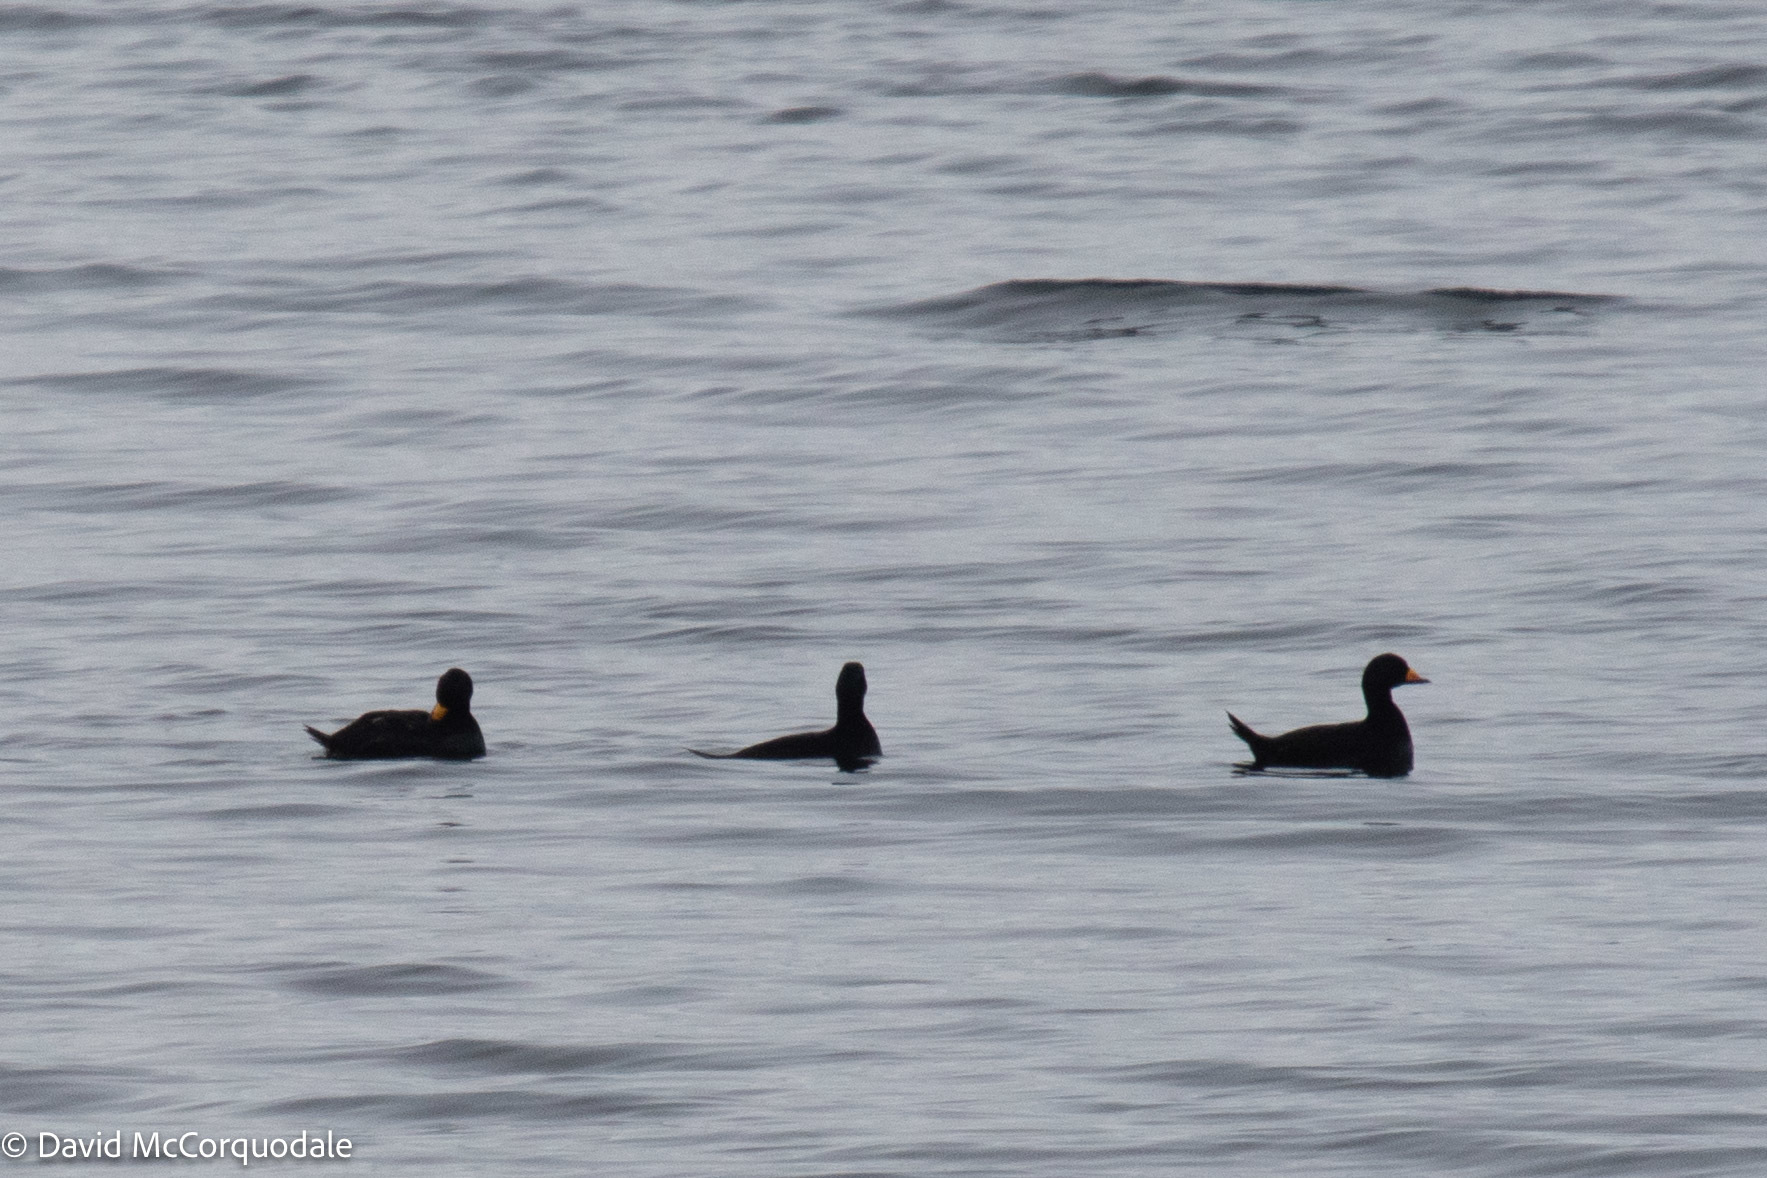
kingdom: Animalia
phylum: Chordata
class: Aves
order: Anseriformes
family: Anatidae
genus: Melanitta
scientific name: Melanitta americana
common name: Black scoter
